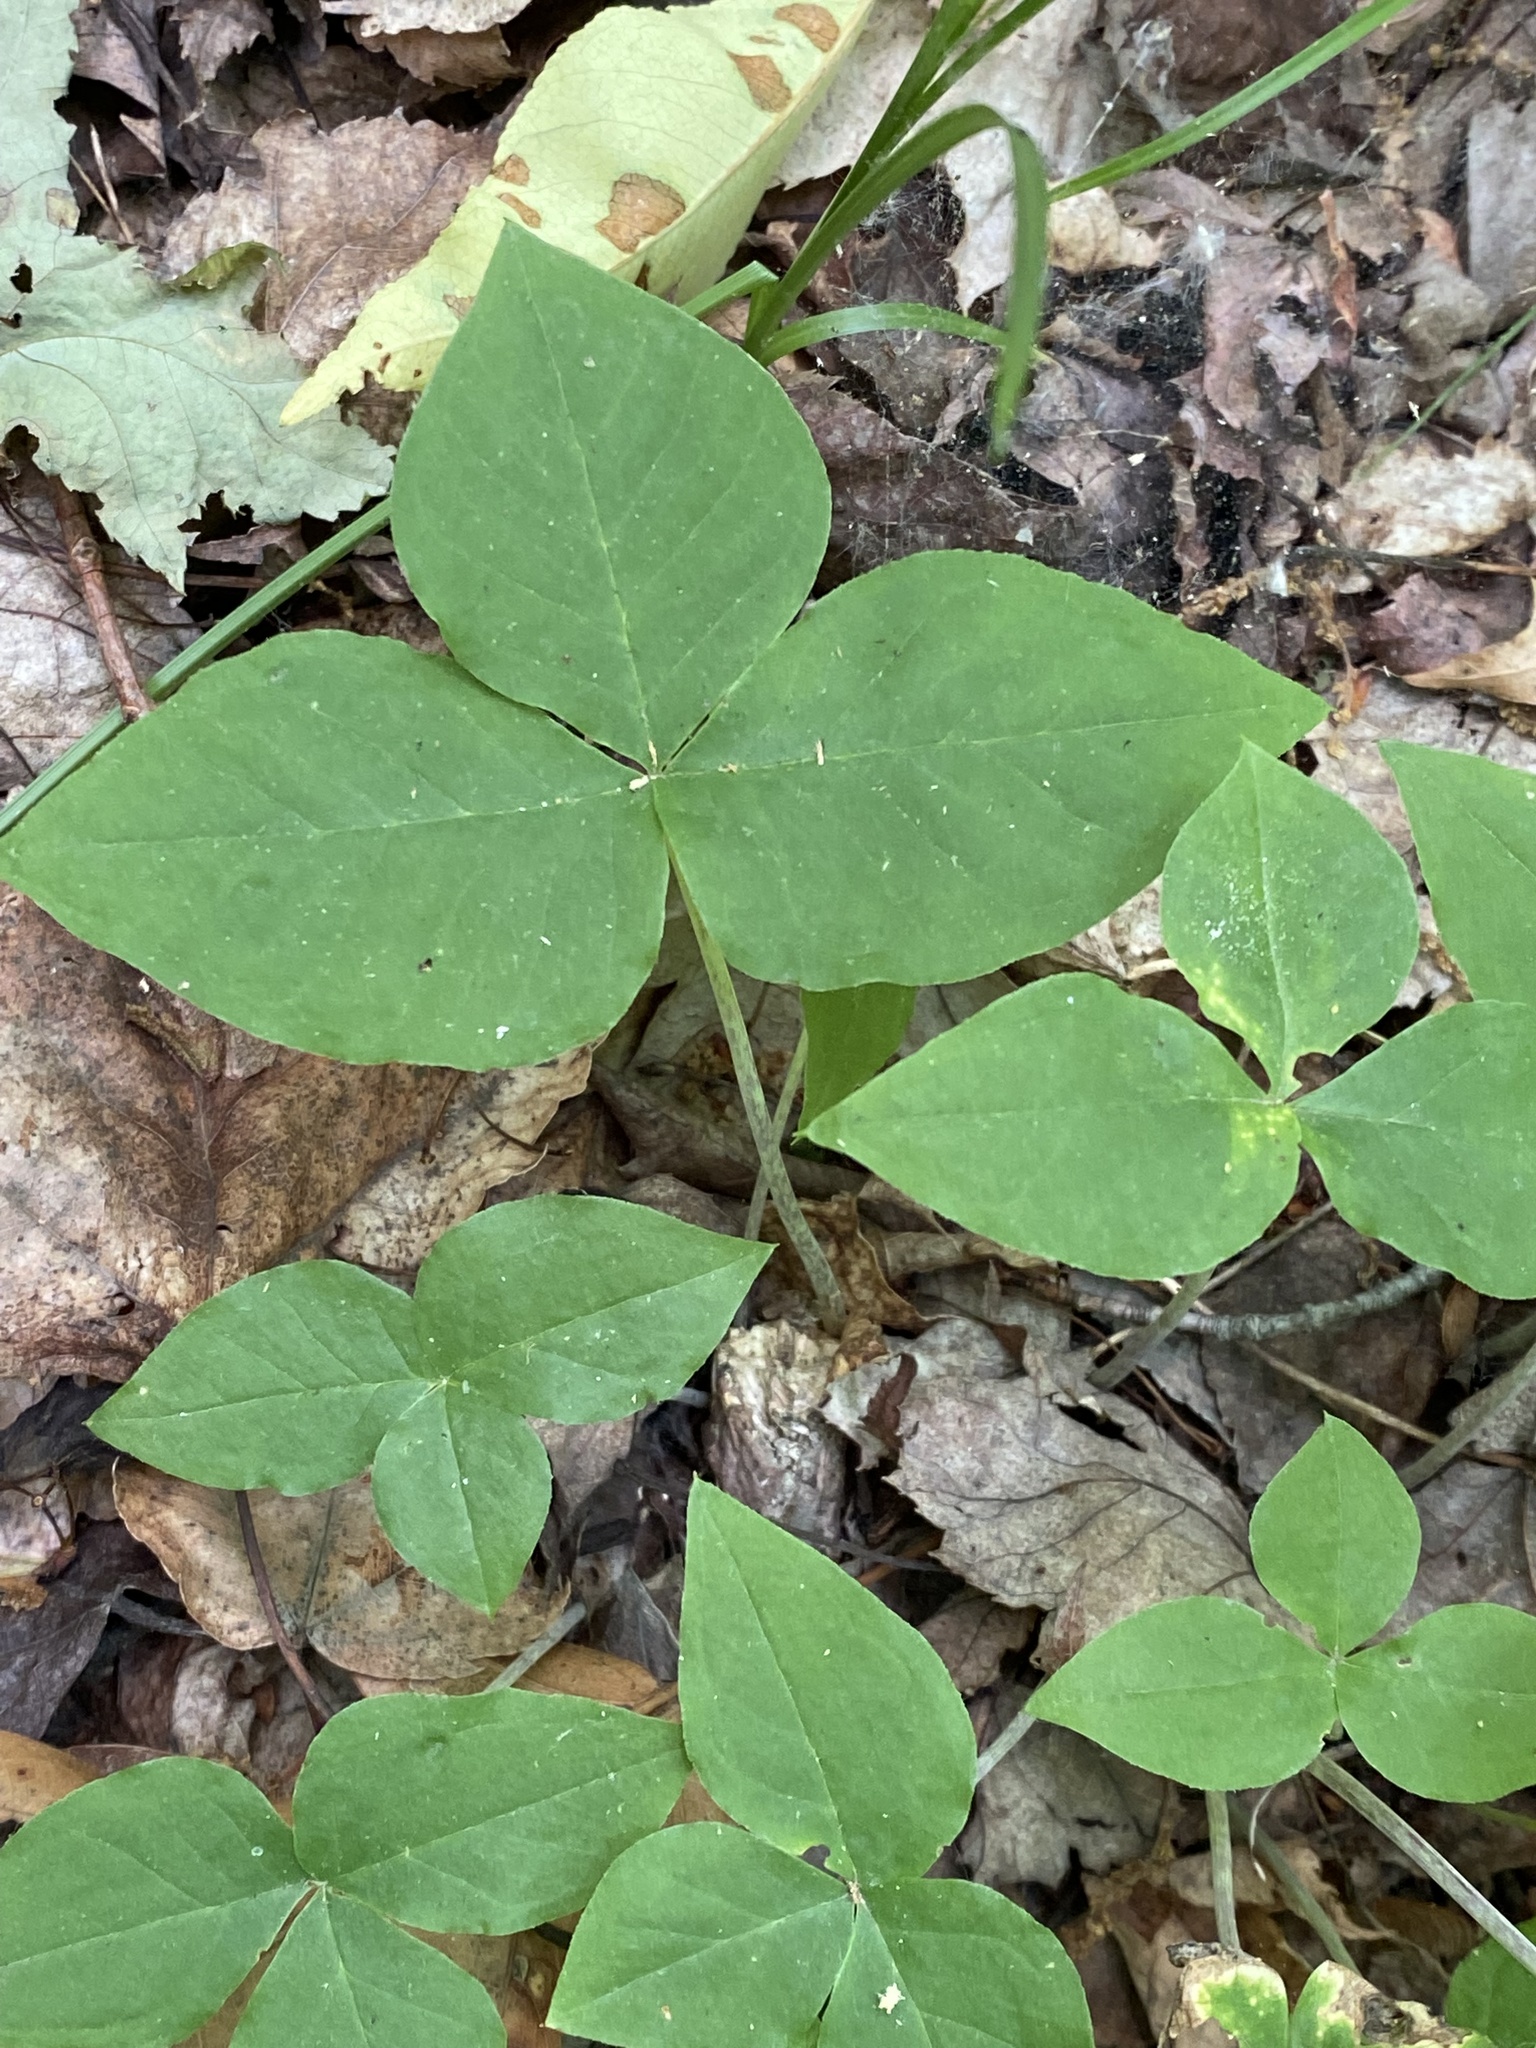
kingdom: Plantae
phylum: Tracheophyta
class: Liliopsida
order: Alismatales
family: Araceae
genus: Arisaema
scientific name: Arisaema triphyllum
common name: Jack-in-the-pulpit
